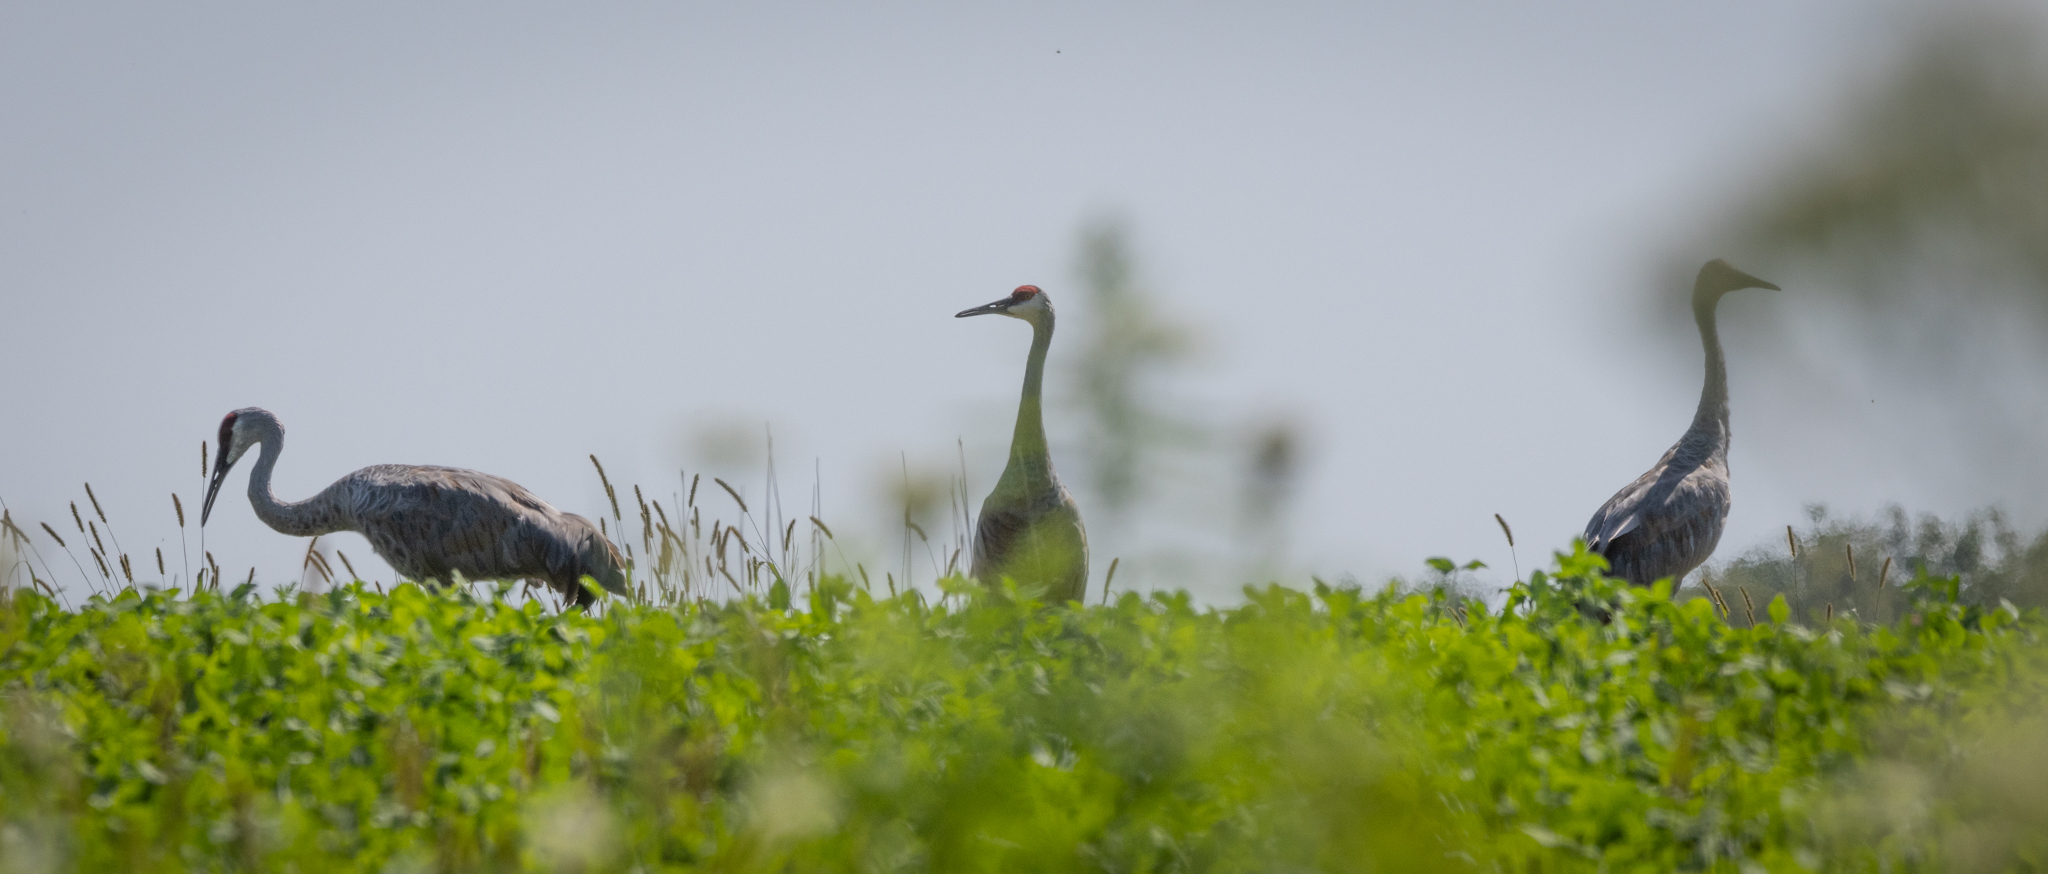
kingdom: Animalia
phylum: Chordata
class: Aves
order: Gruiformes
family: Gruidae
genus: Grus
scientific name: Grus canadensis
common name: Sandhill crane
